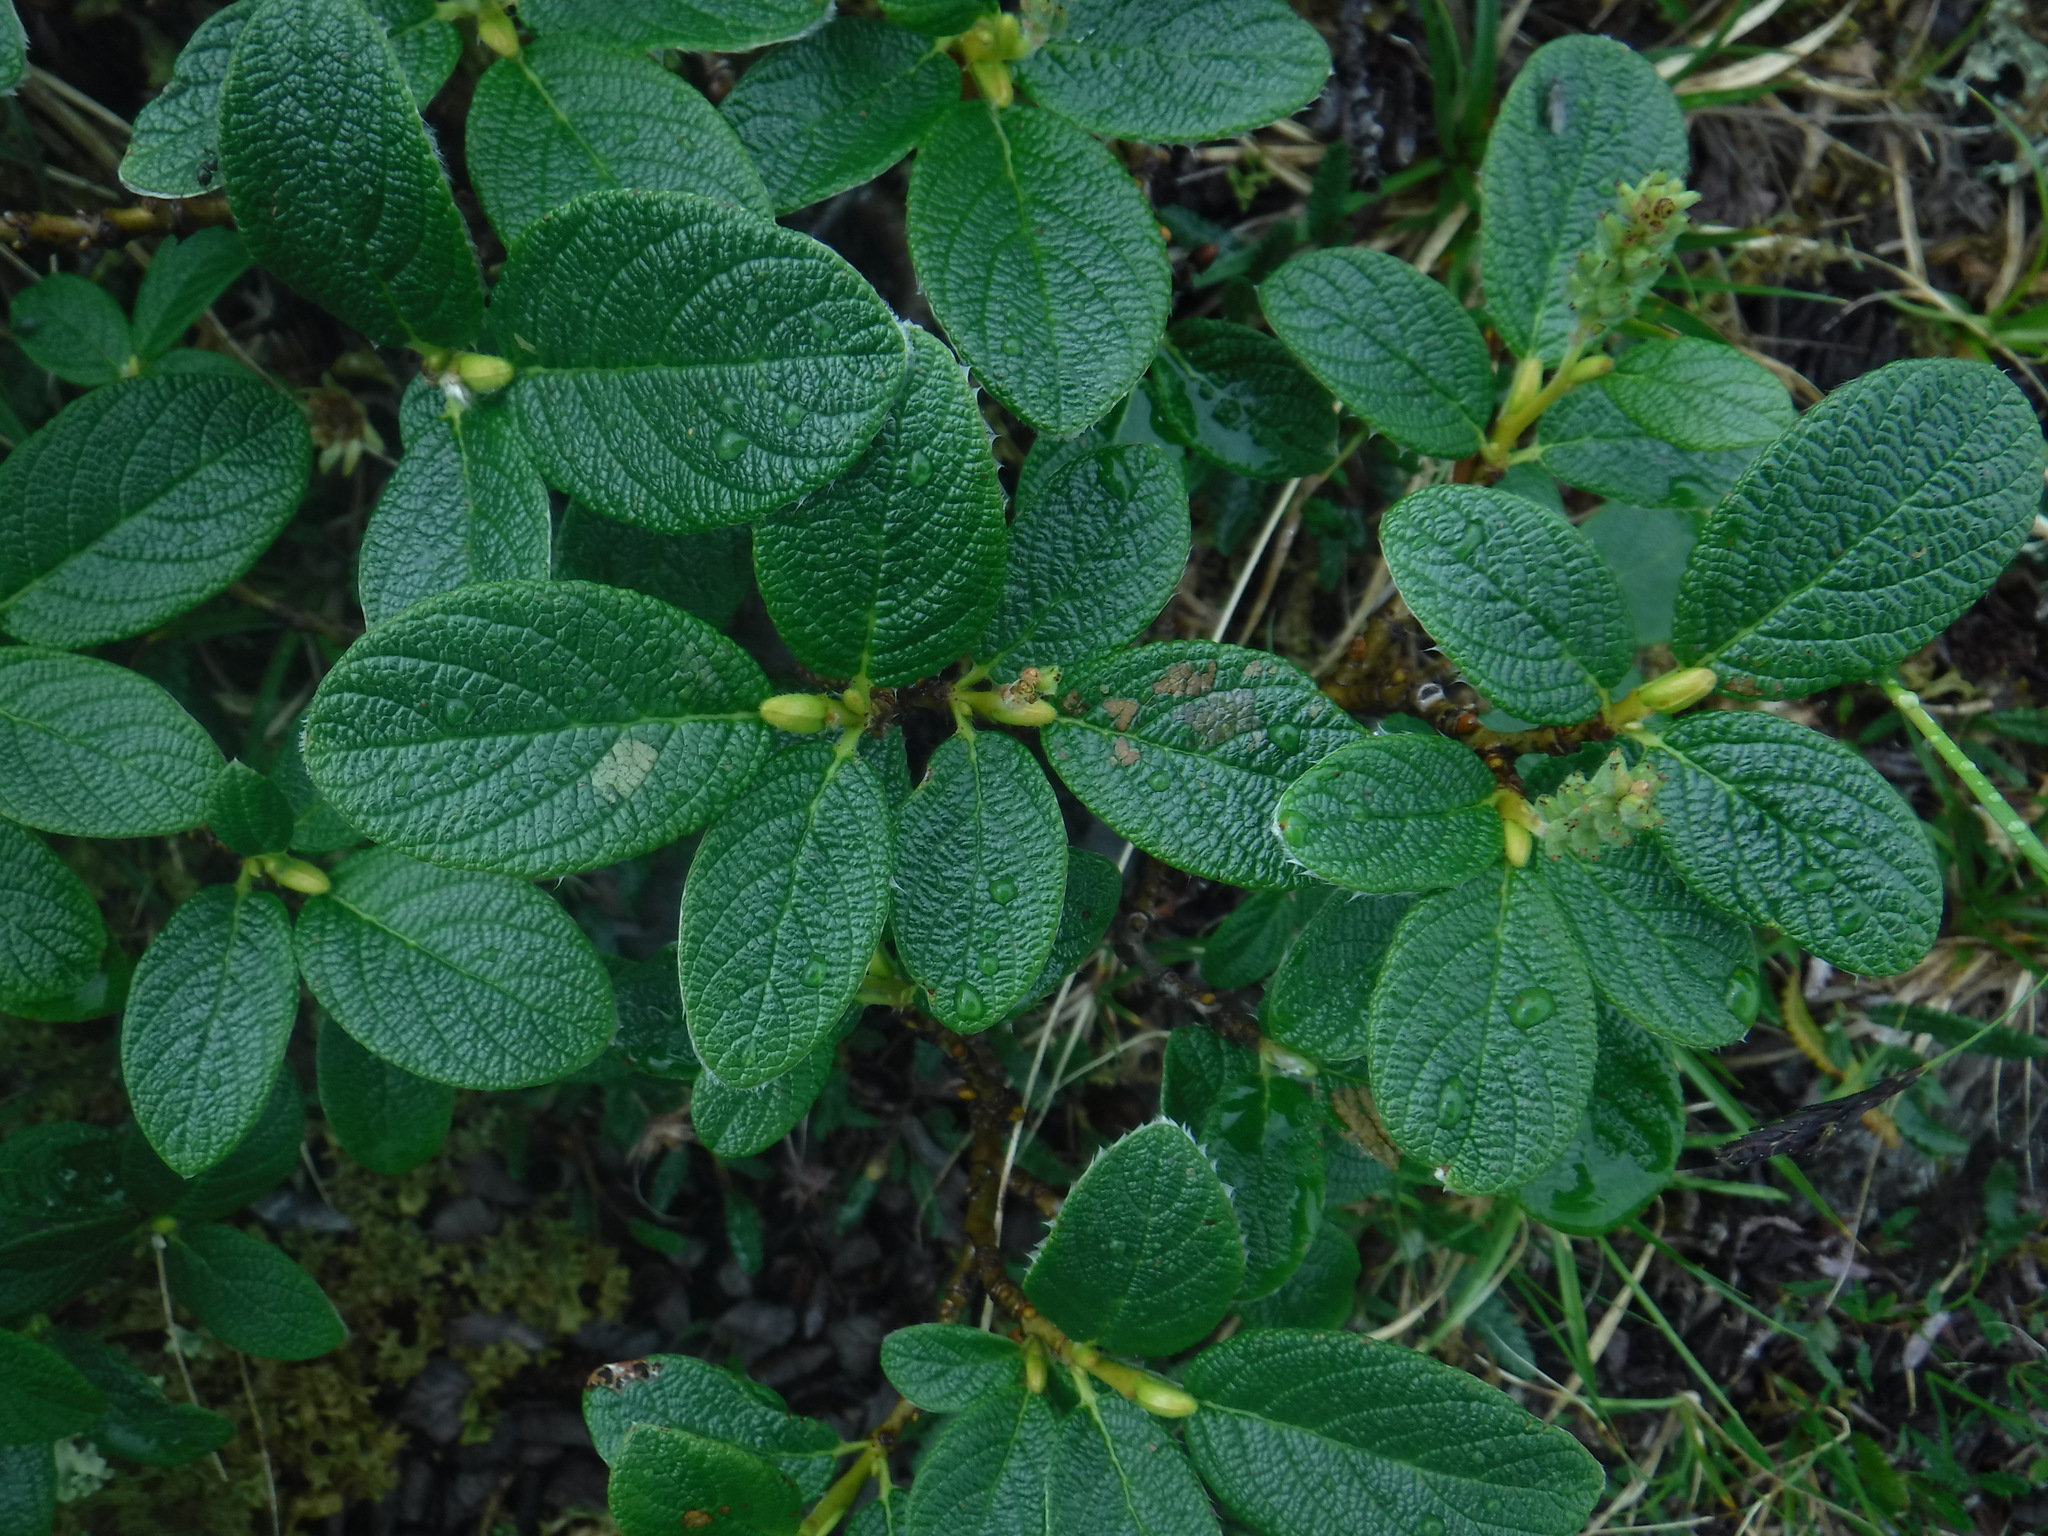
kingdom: Plantae
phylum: Tracheophyta
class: Magnoliopsida
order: Malpighiales
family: Salicaceae
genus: Salix
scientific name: Salix vestita
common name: Hairy willow
